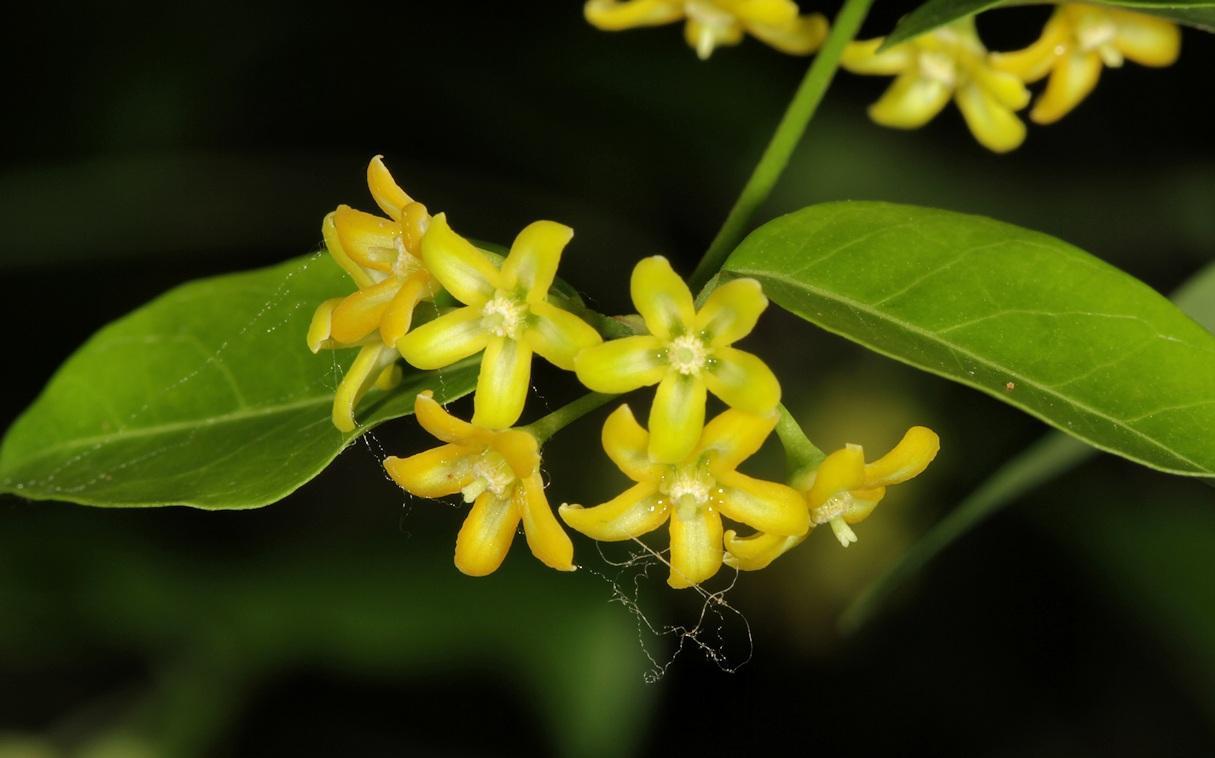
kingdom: Plantae
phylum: Tracheophyta
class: Magnoliopsida
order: Gentianales
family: Apocynaceae
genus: Secamone
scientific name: Secamone schweinfurthii
